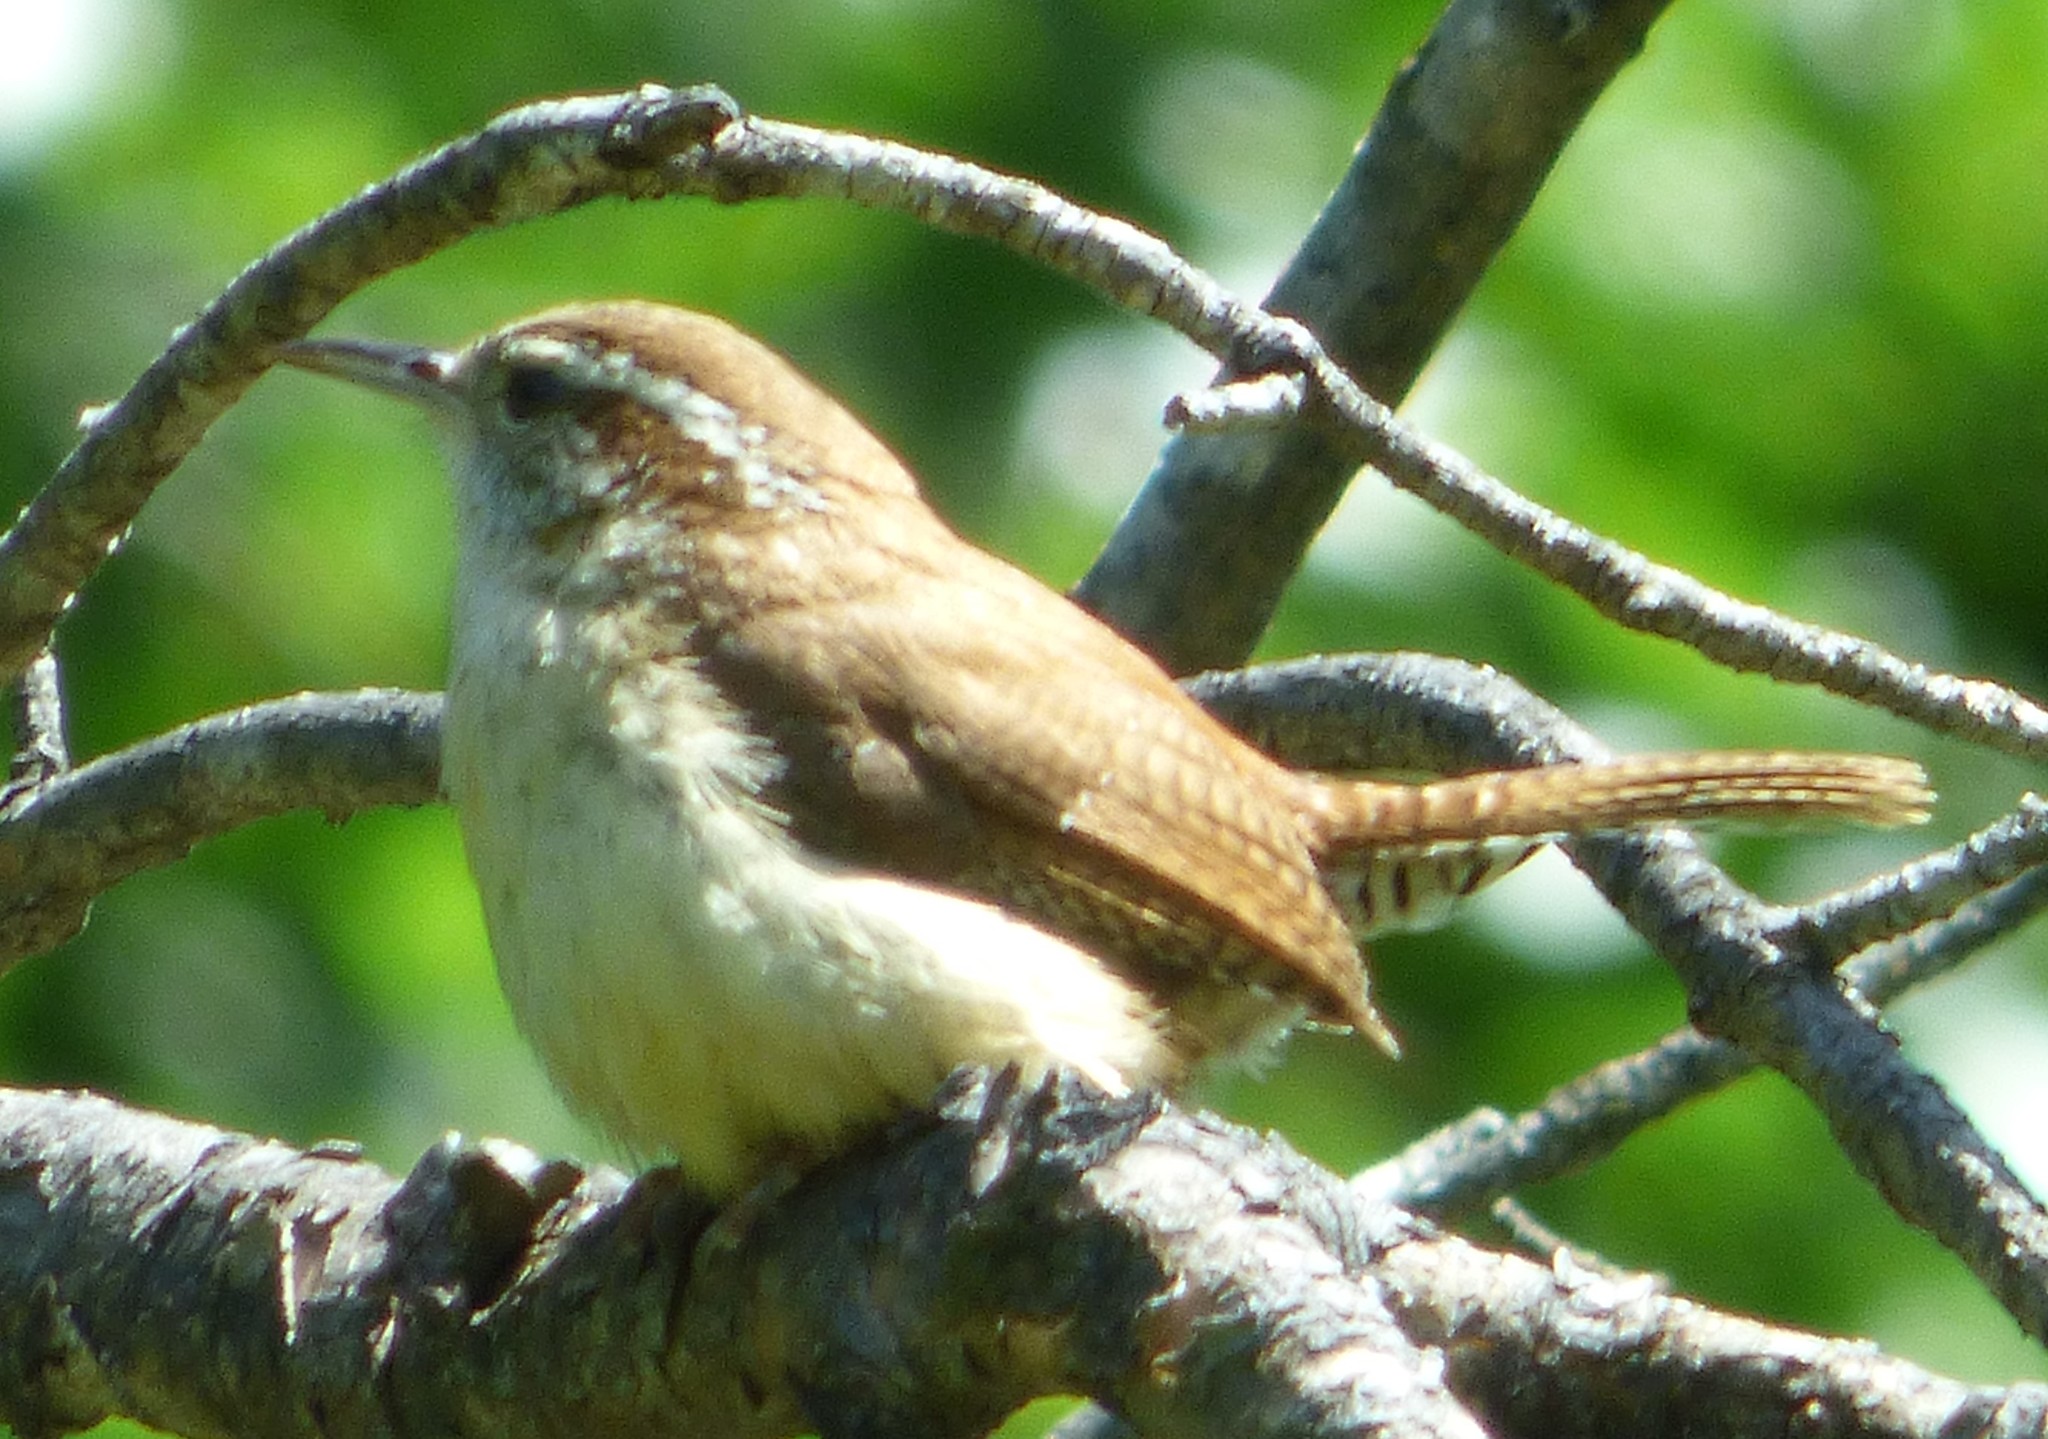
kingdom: Animalia
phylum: Chordata
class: Aves
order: Passeriformes
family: Troglodytidae
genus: Thryothorus
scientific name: Thryothorus ludovicianus
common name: Carolina wren
